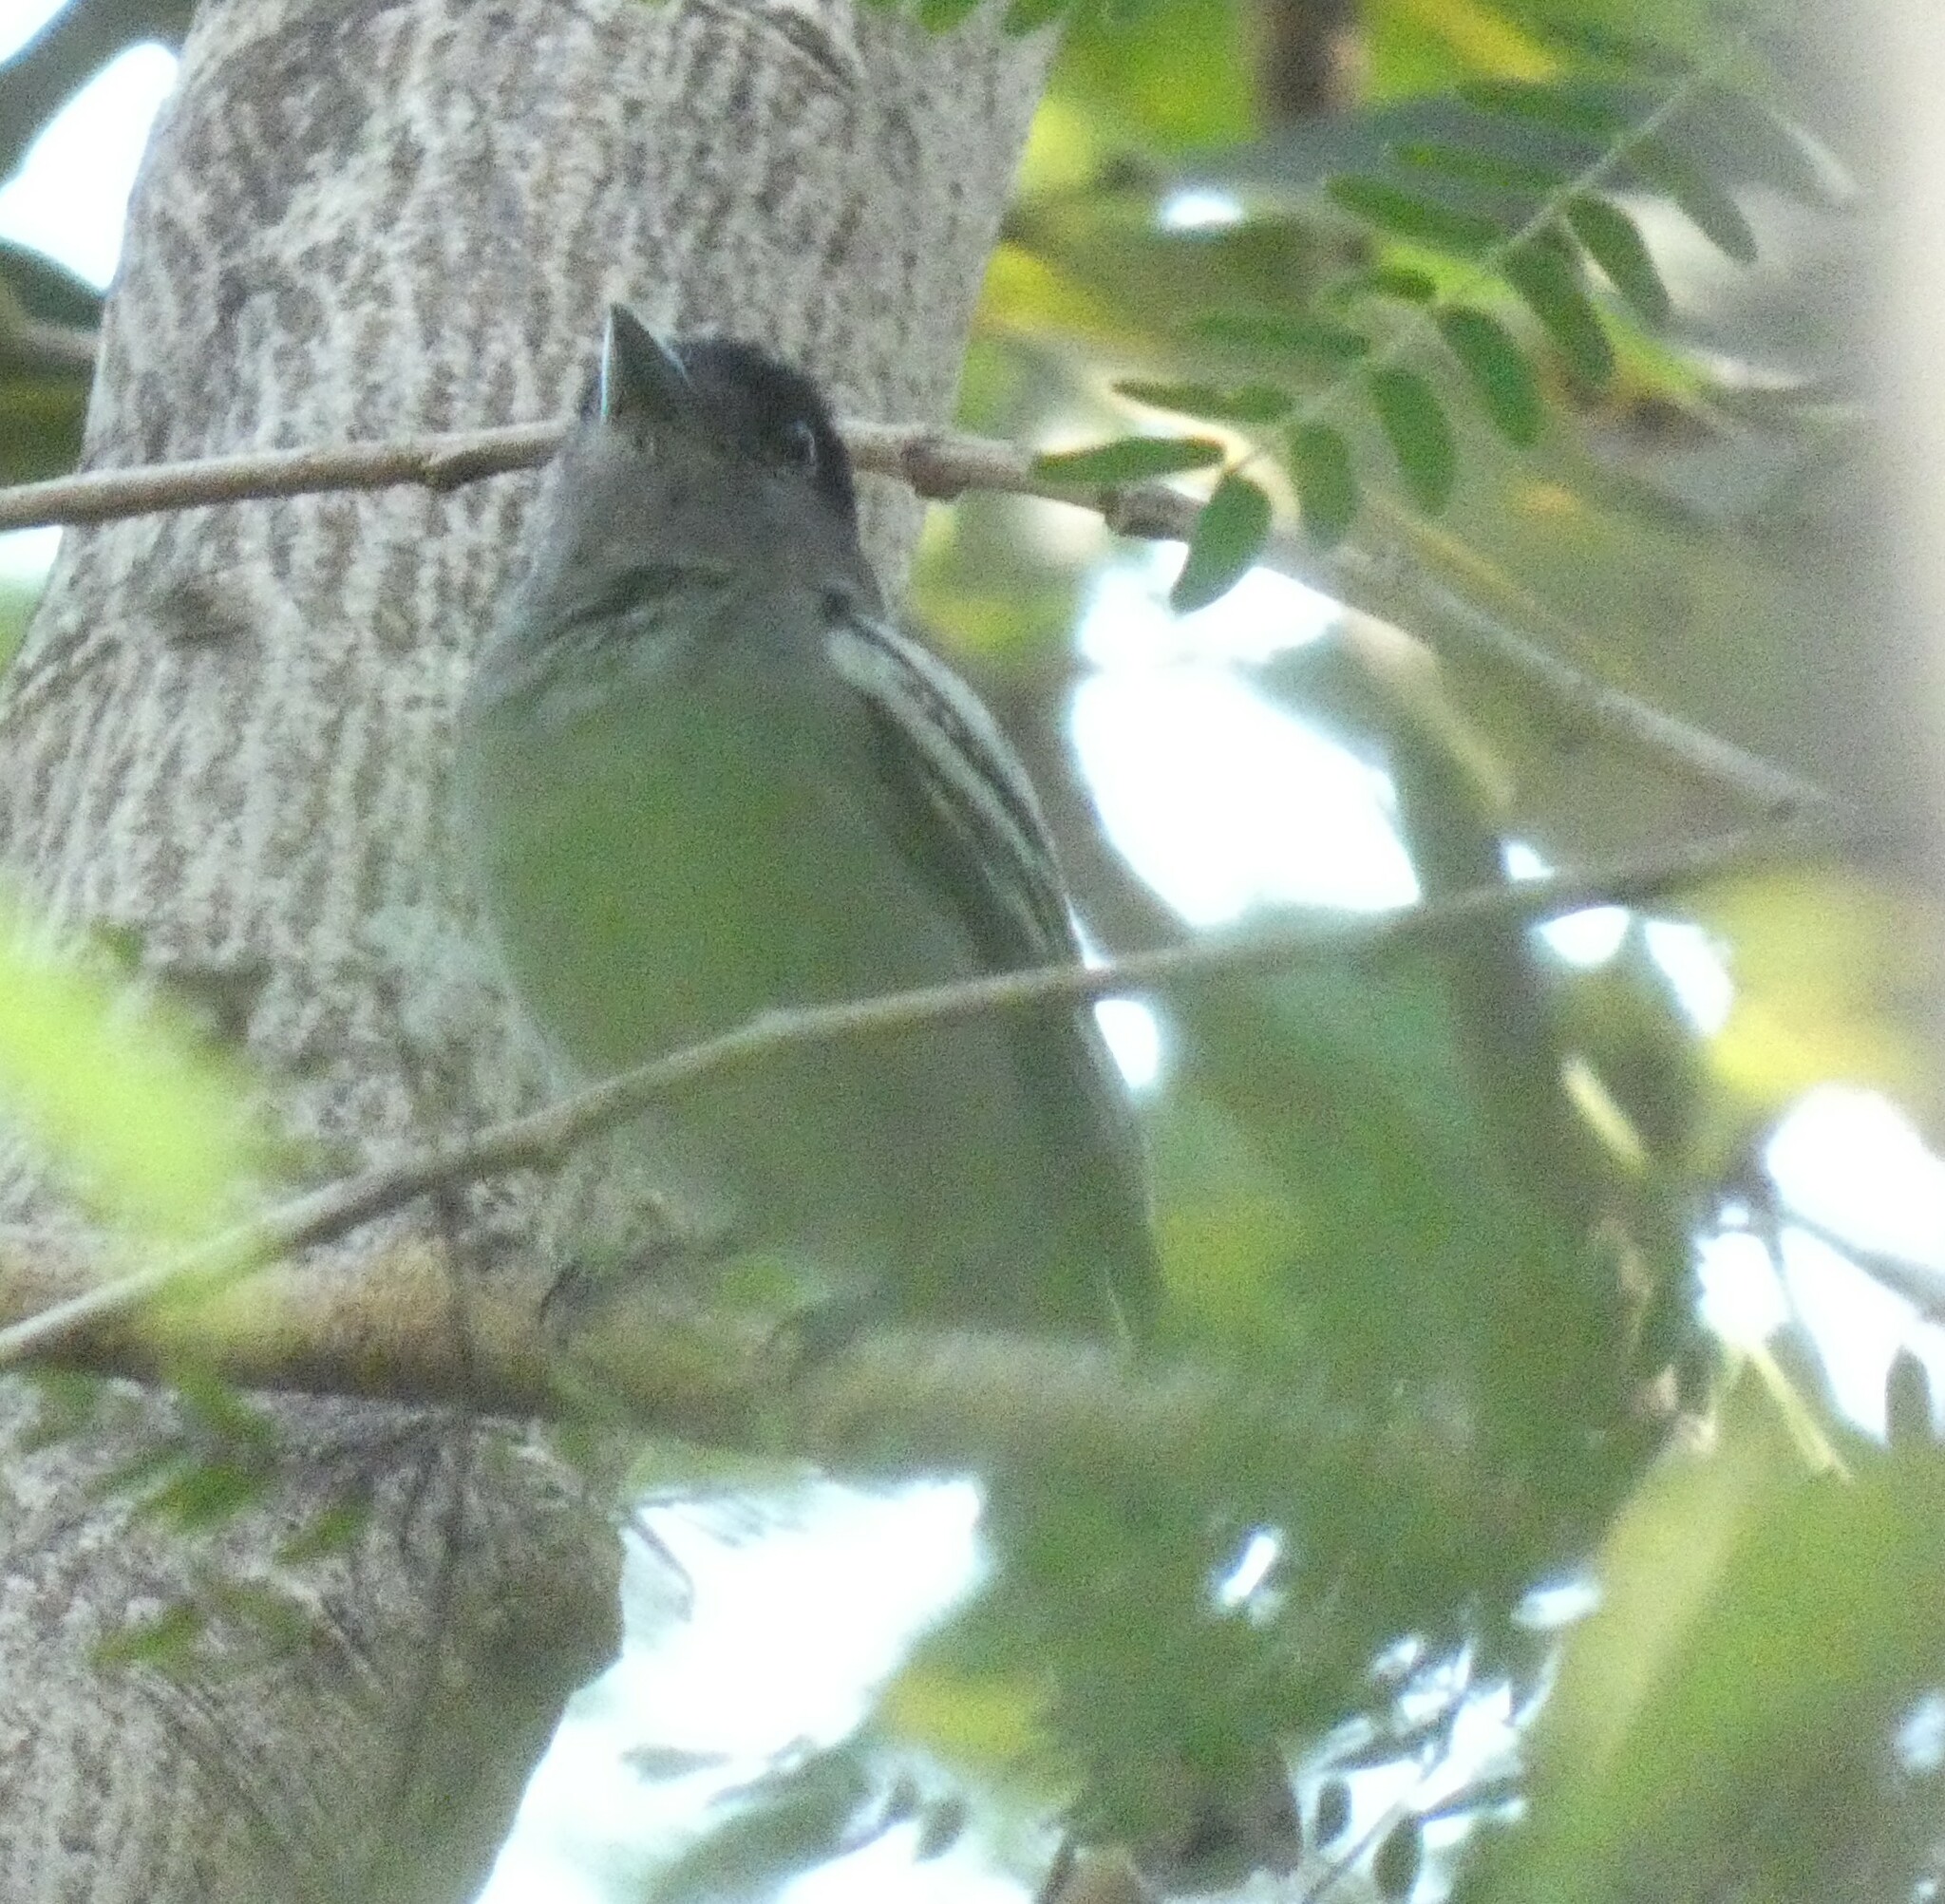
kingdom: Animalia
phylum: Chordata
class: Aves
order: Passeriformes
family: Cotingidae
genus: Pachyramphus
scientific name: Pachyramphus polychopterus
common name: White-winged becard
